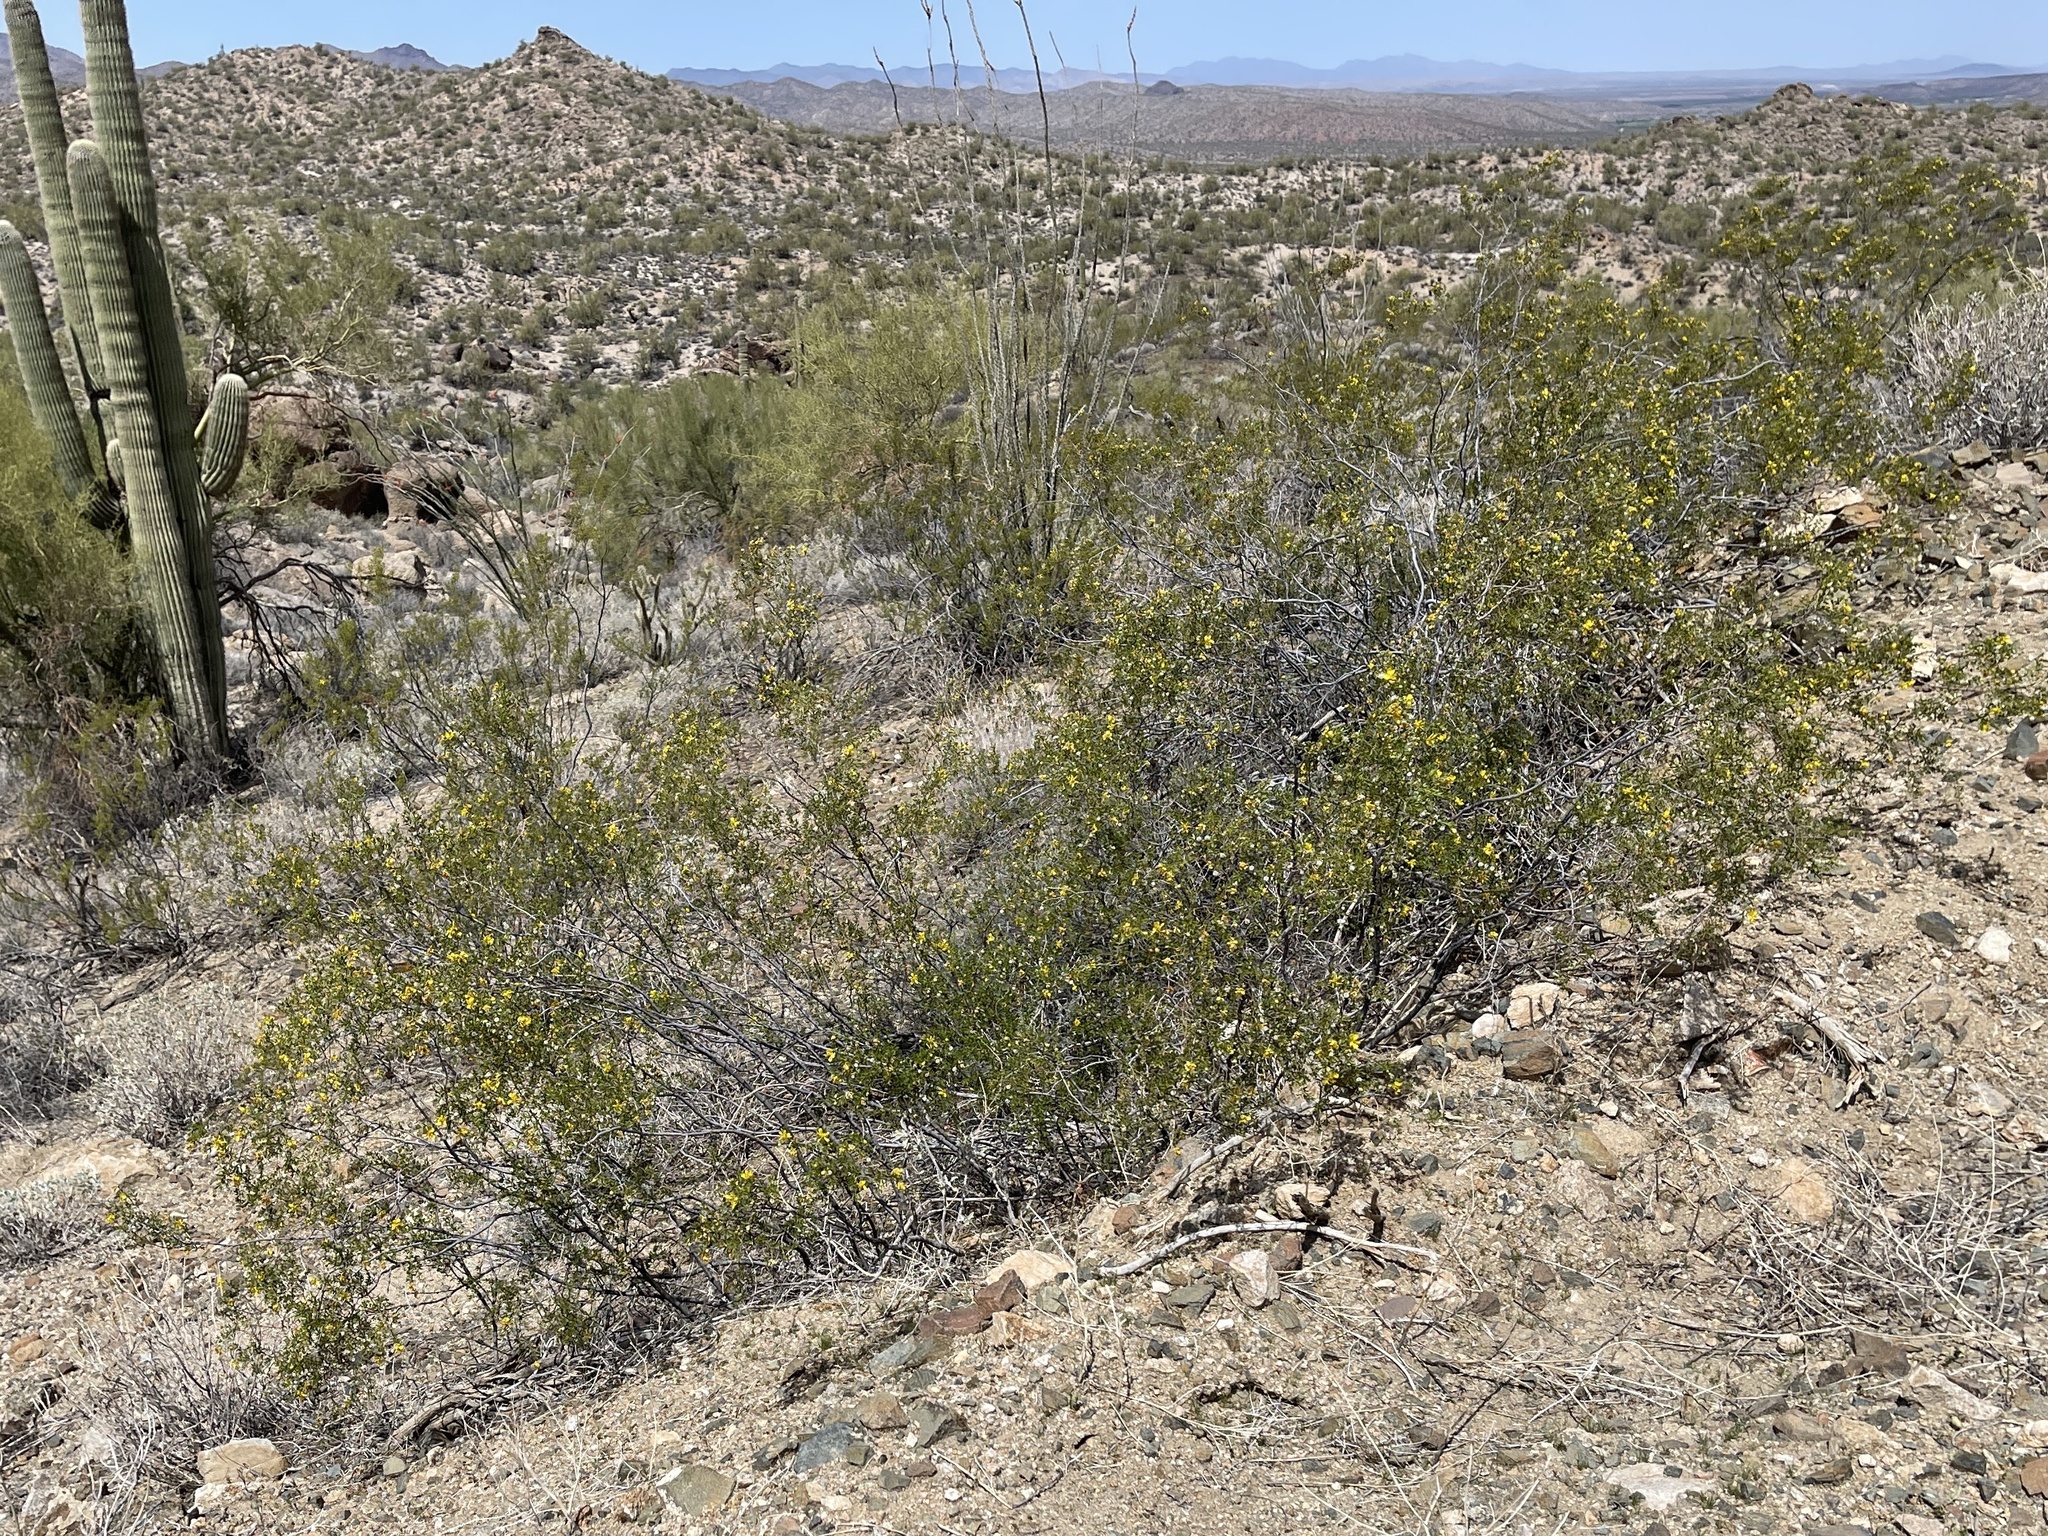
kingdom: Plantae
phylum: Tracheophyta
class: Magnoliopsida
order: Zygophyllales
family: Zygophyllaceae
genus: Larrea
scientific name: Larrea tridentata
